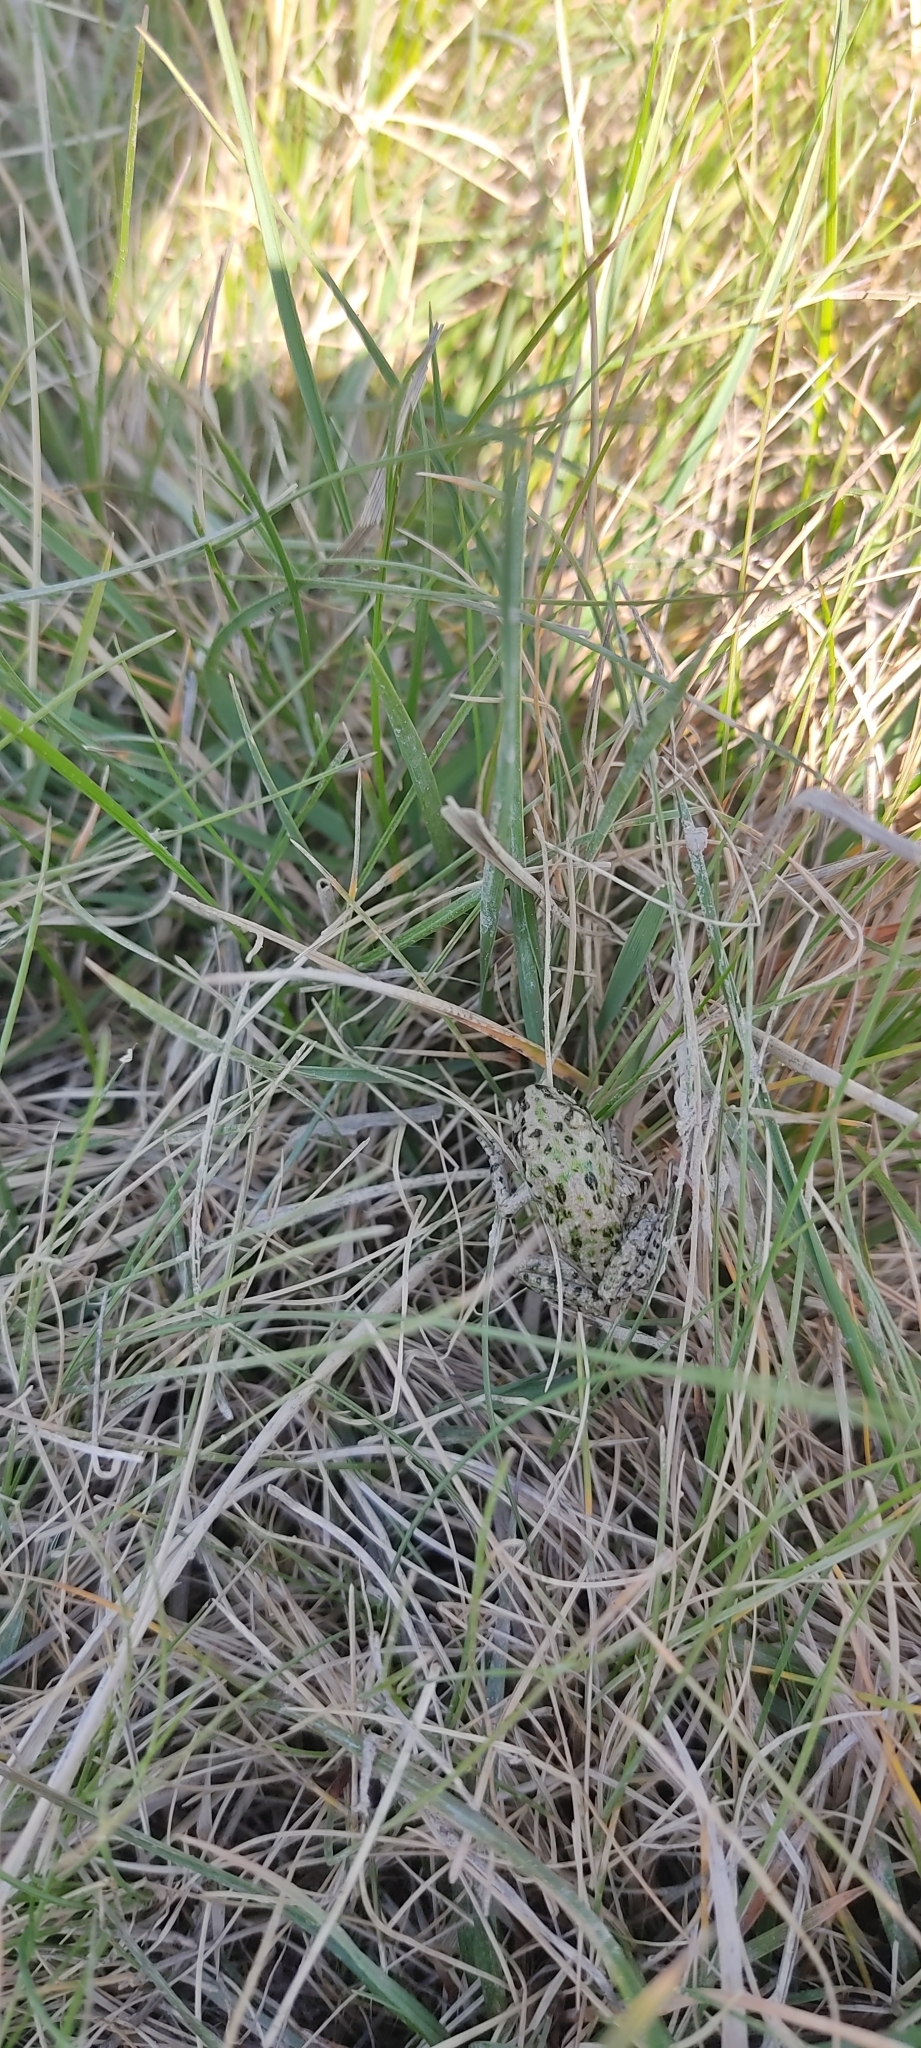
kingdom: Animalia
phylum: Chordata
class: Amphibia
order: Anura
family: Pelodytidae
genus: Pelodytes
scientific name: Pelodytes punctatus
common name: Parsley frog
